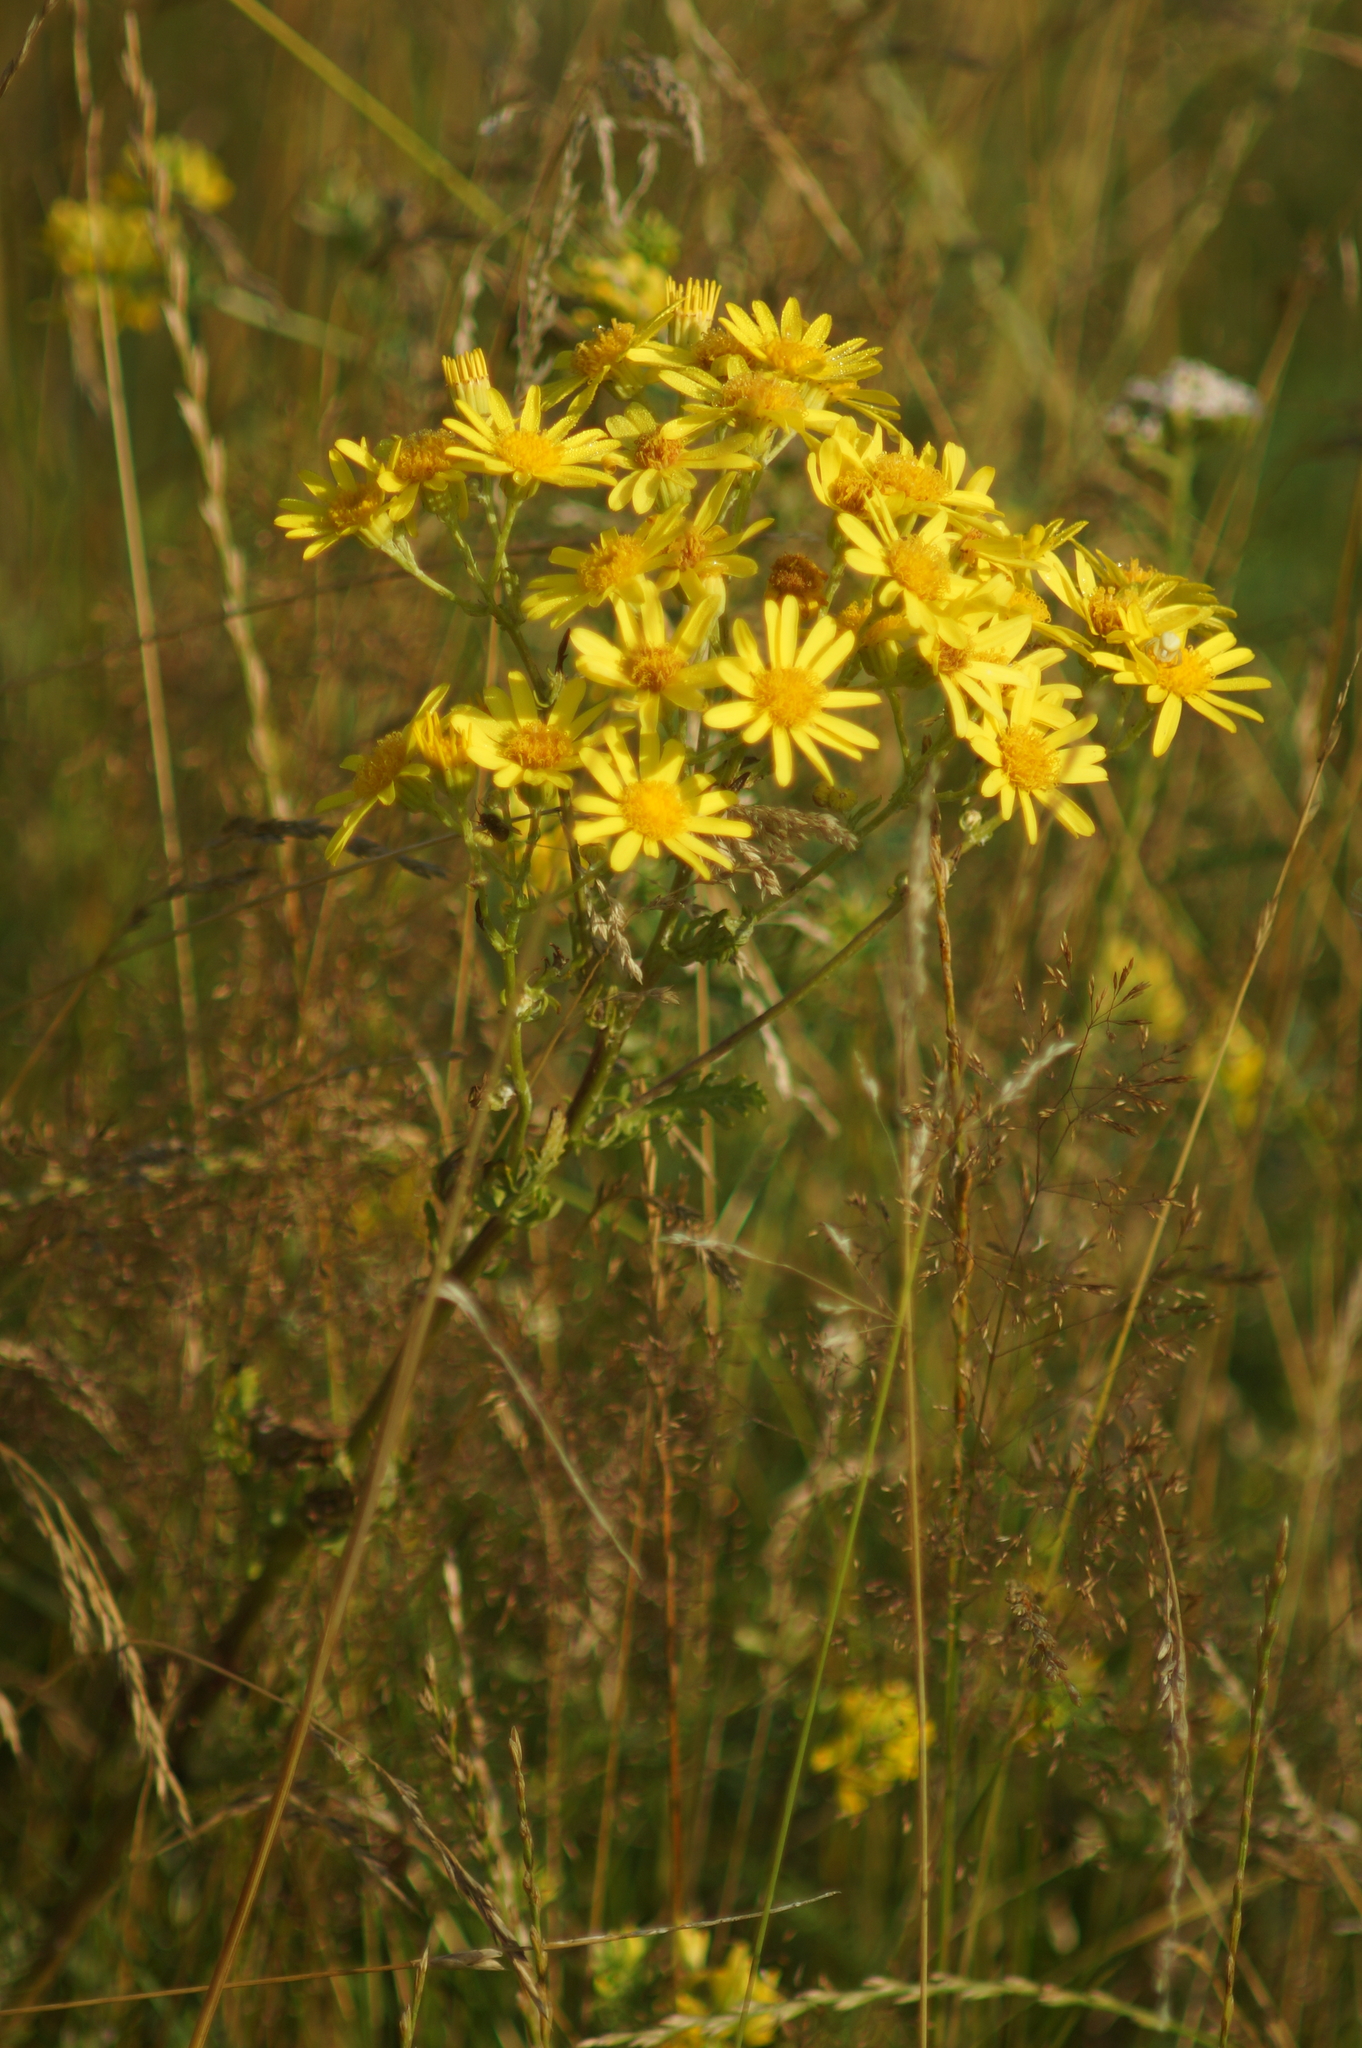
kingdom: Plantae
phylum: Tracheophyta
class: Magnoliopsida
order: Asterales
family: Asteraceae
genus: Jacobaea
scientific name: Jacobaea vulgaris
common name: Stinking willie
